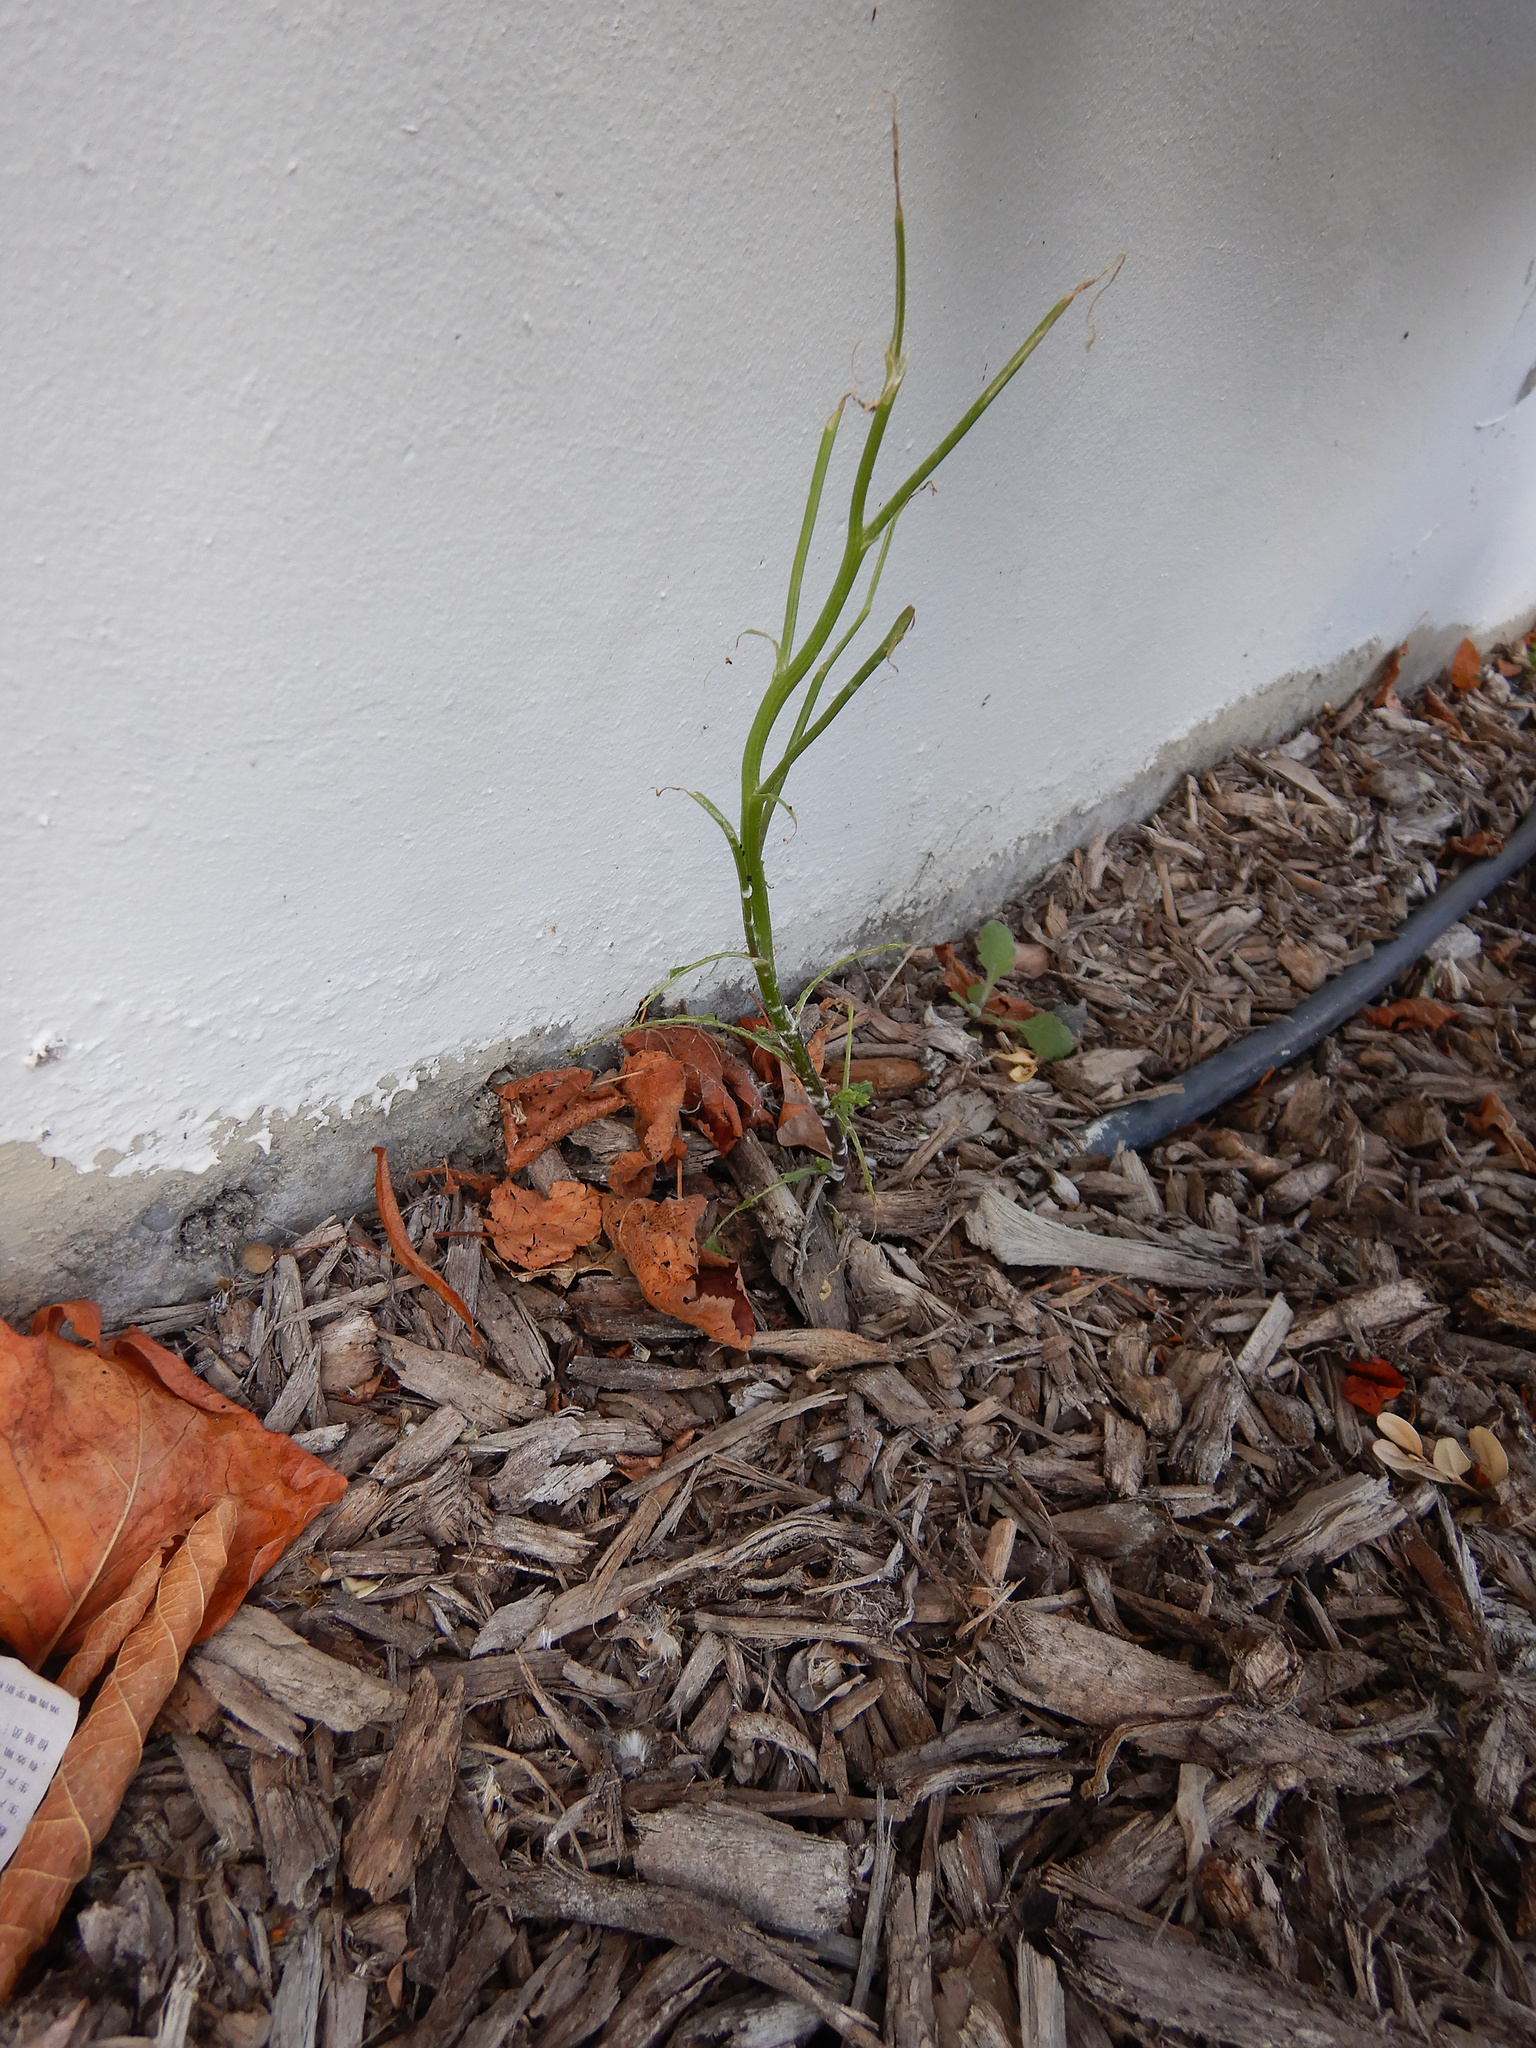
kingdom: Plantae
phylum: Tracheophyta
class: Magnoliopsida
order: Asterales
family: Asteraceae
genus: Senecio
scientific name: Senecio vulgaris
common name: Old-man-in-the-spring
